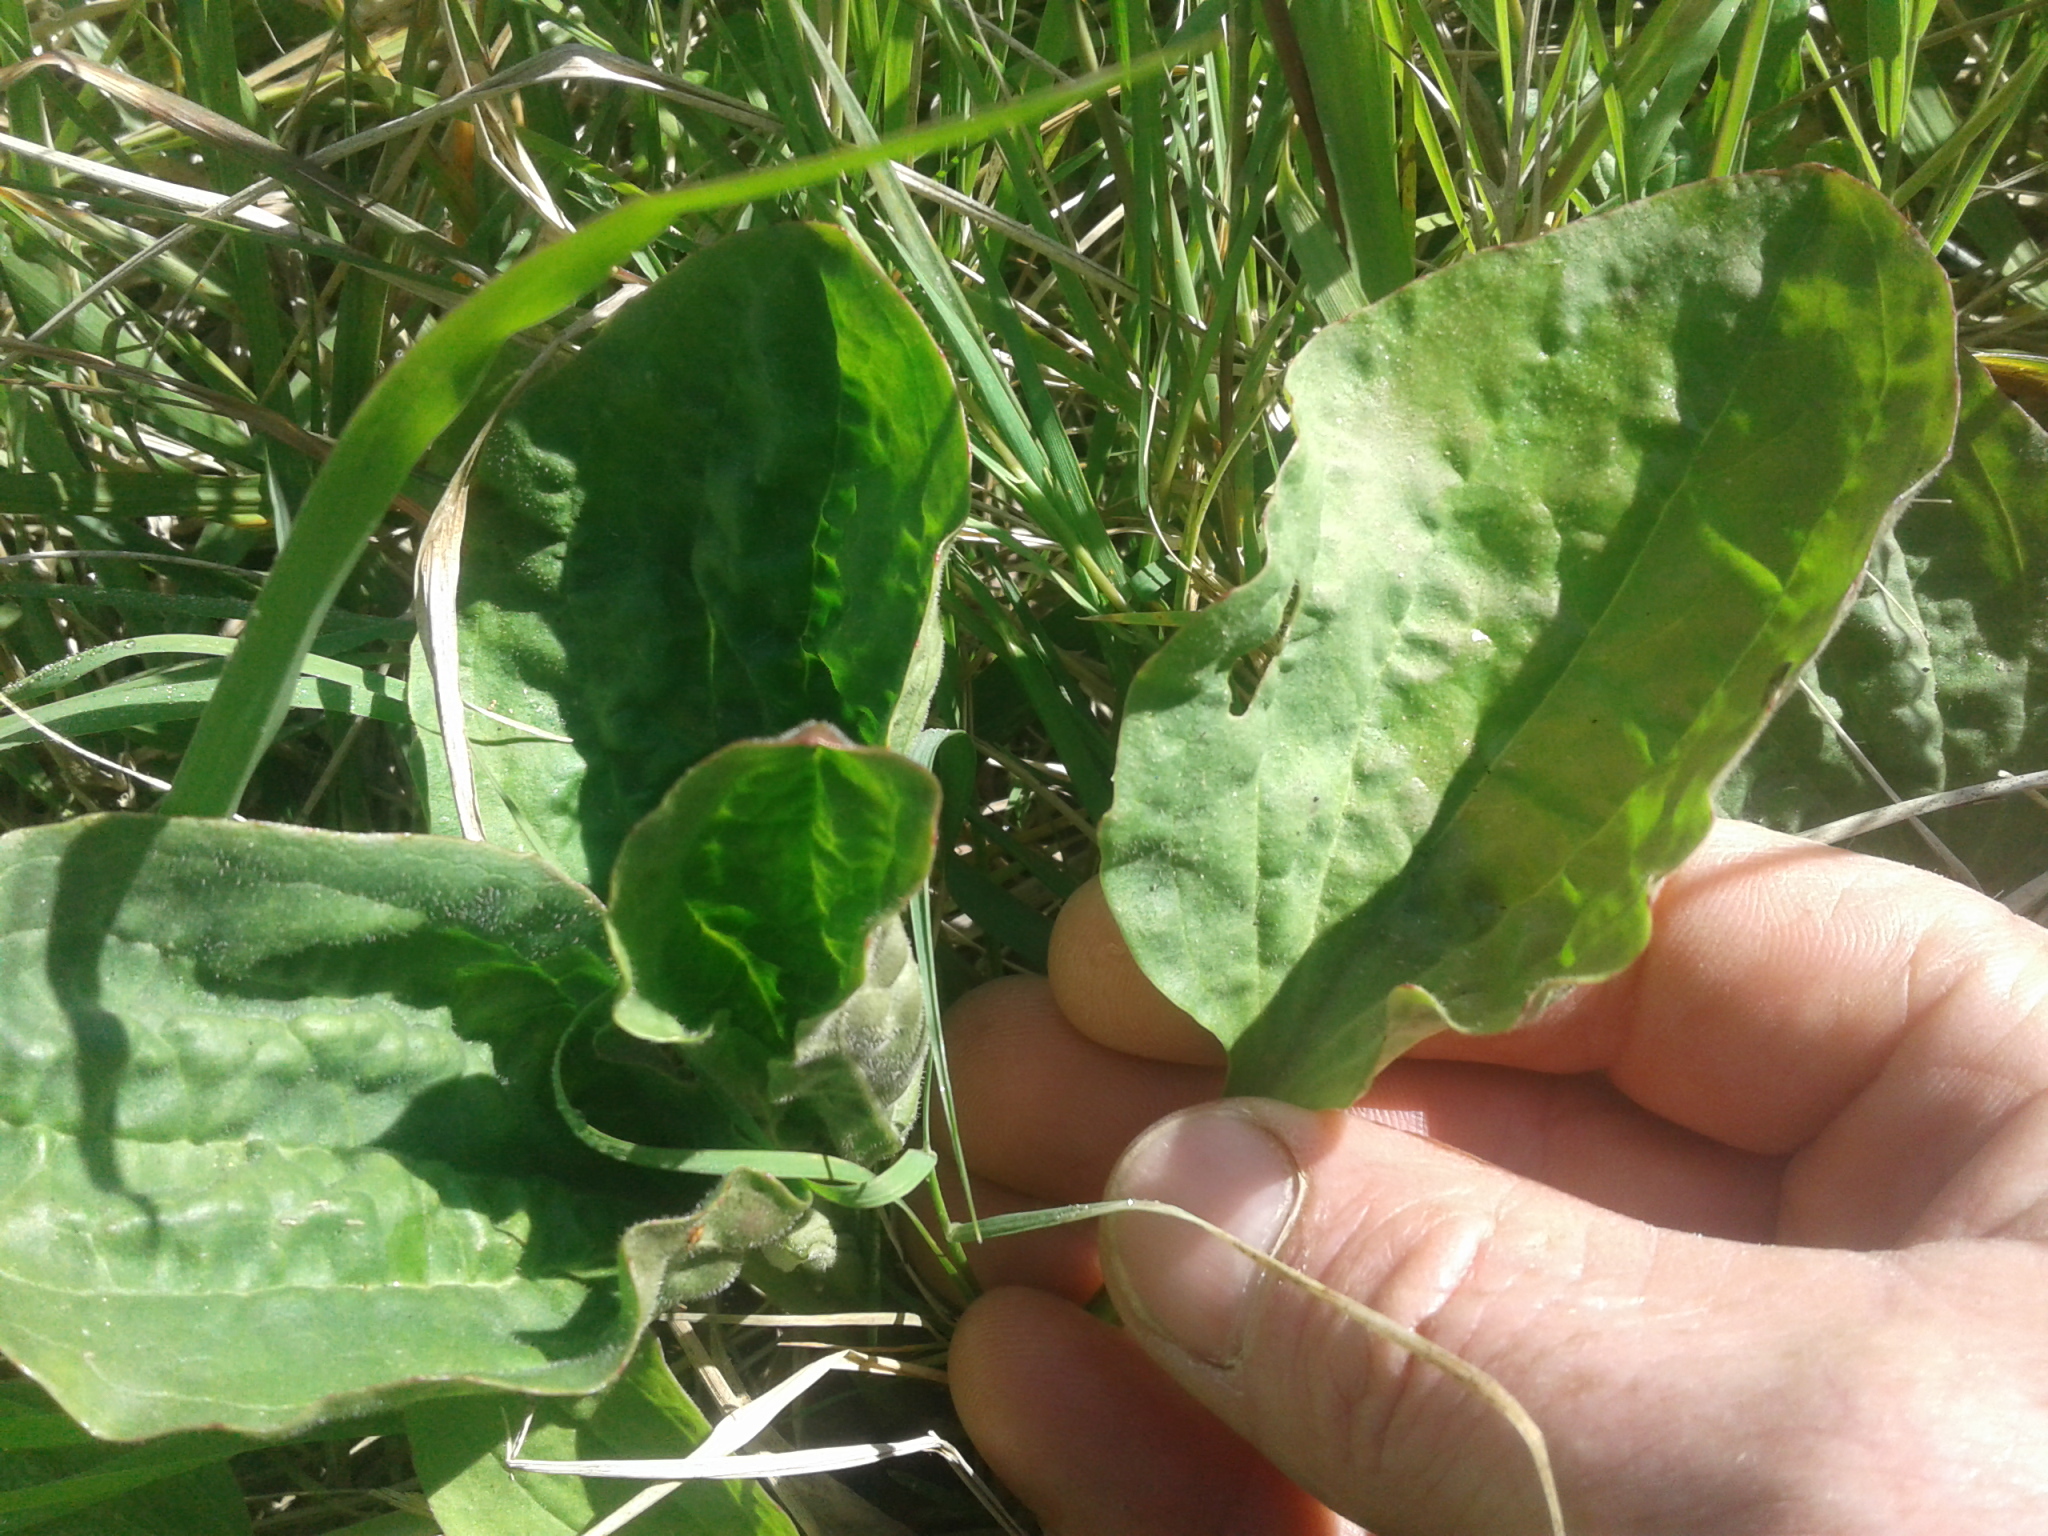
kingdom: Plantae
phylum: Tracheophyta
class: Magnoliopsida
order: Lamiales
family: Plantaginaceae
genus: Plantago
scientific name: Plantago major
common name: Common plantain
